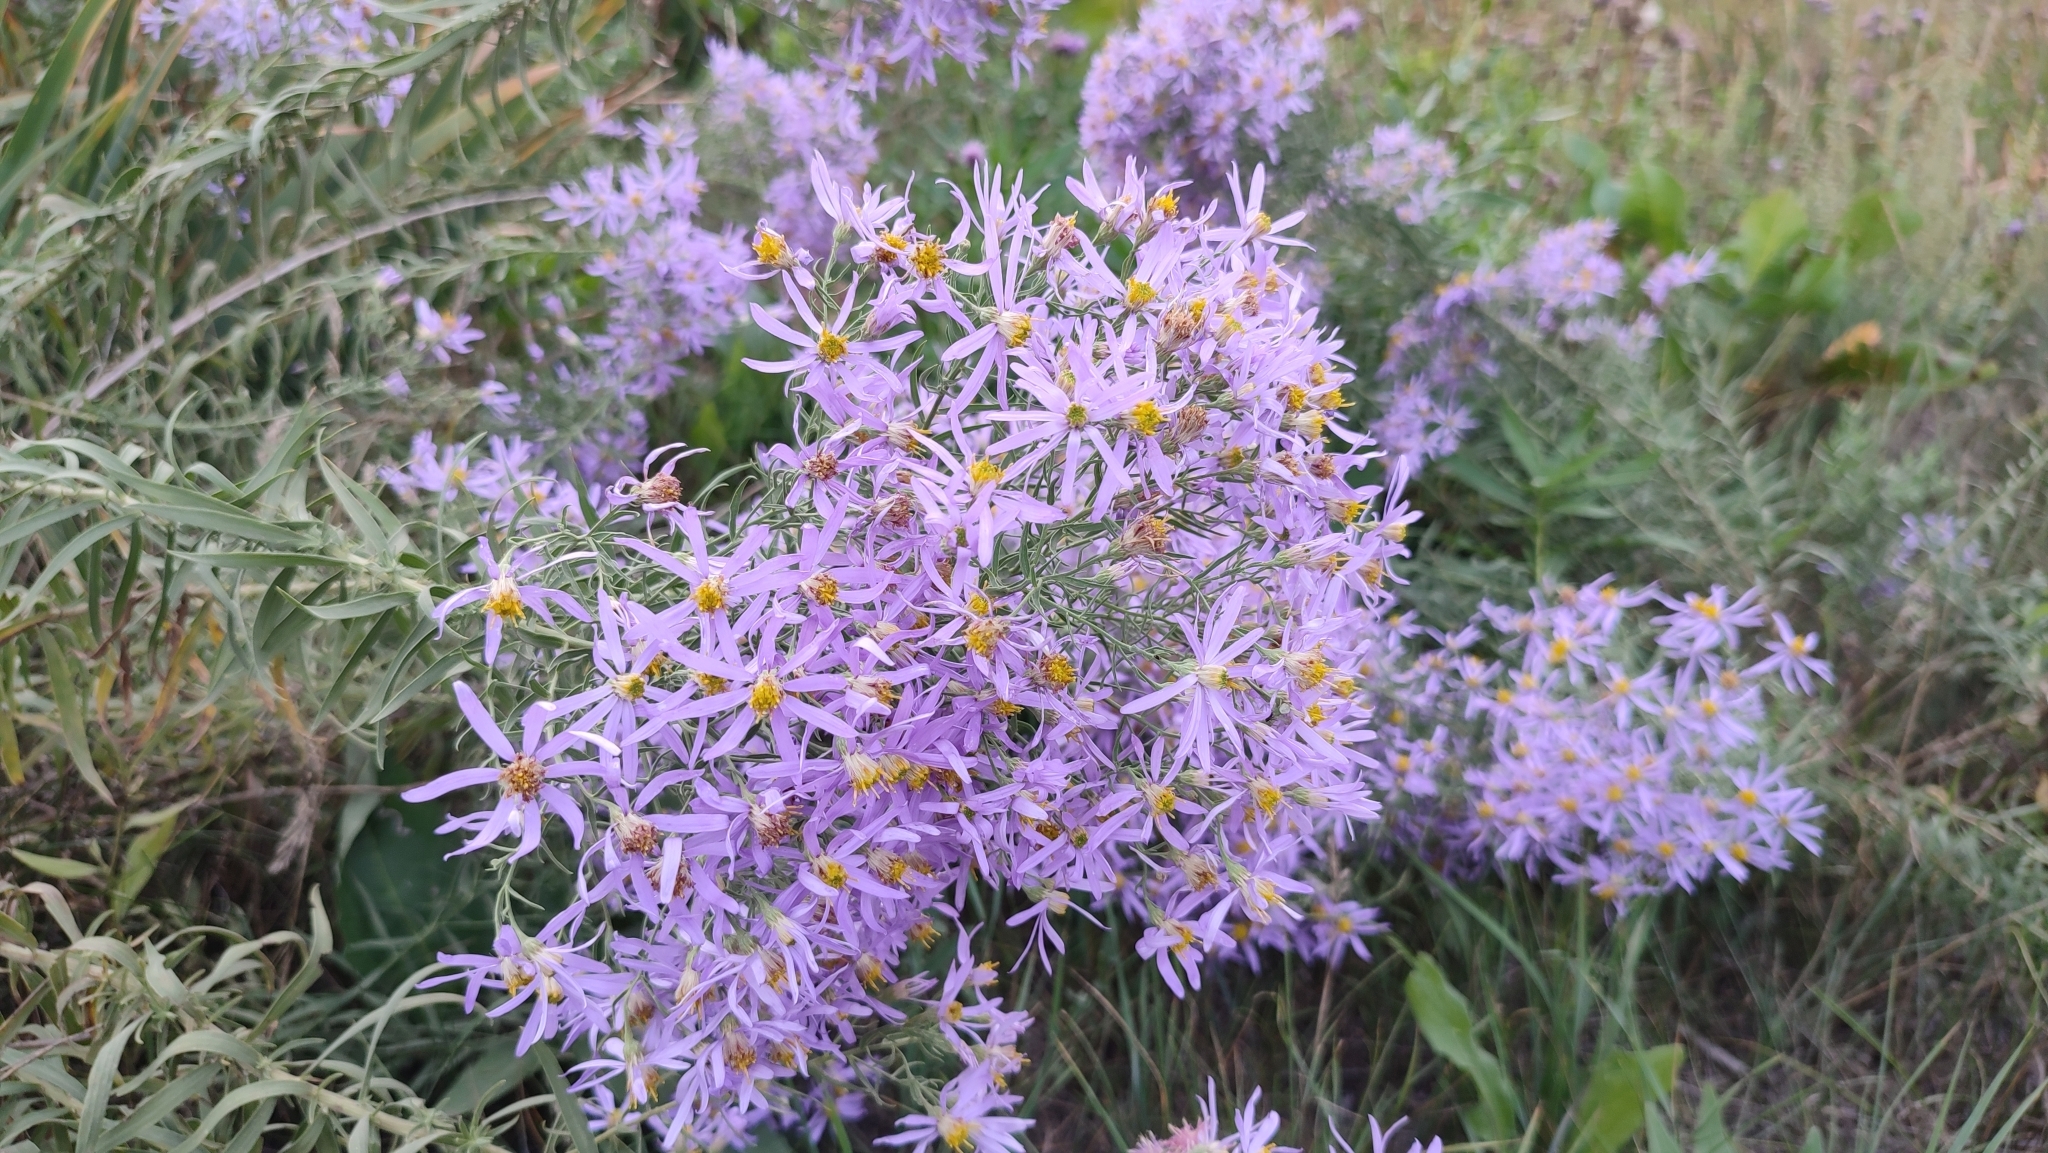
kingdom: Plantae
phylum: Tracheophyta
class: Magnoliopsida
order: Asterales
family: Asteraceae
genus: Galatella
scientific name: Galatella sedifolia
